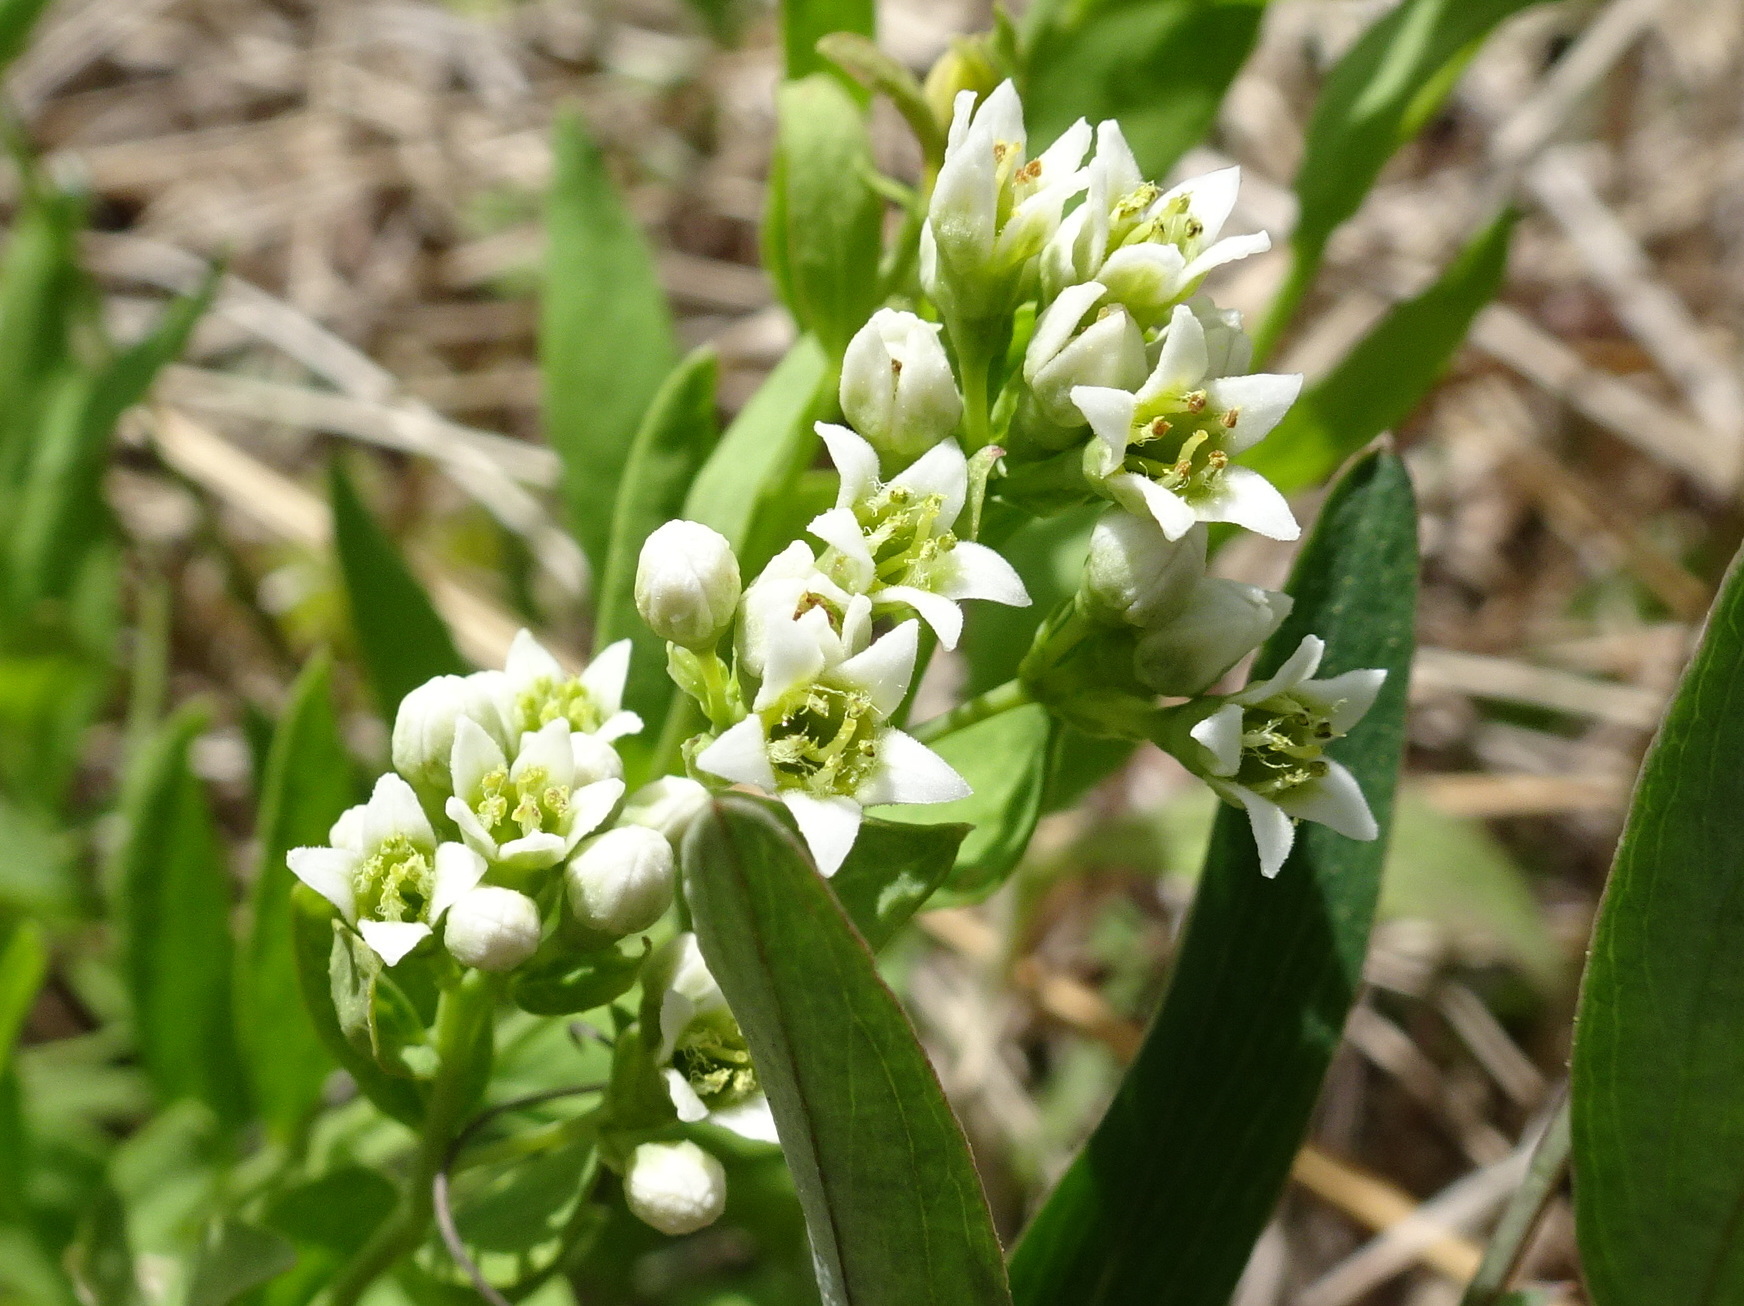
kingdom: Plantae
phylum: Tracheophyta
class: Magnoliopsida
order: Santalales
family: Comandraceae
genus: Comandra
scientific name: Comandra umbellata
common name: Bastard toadflax
